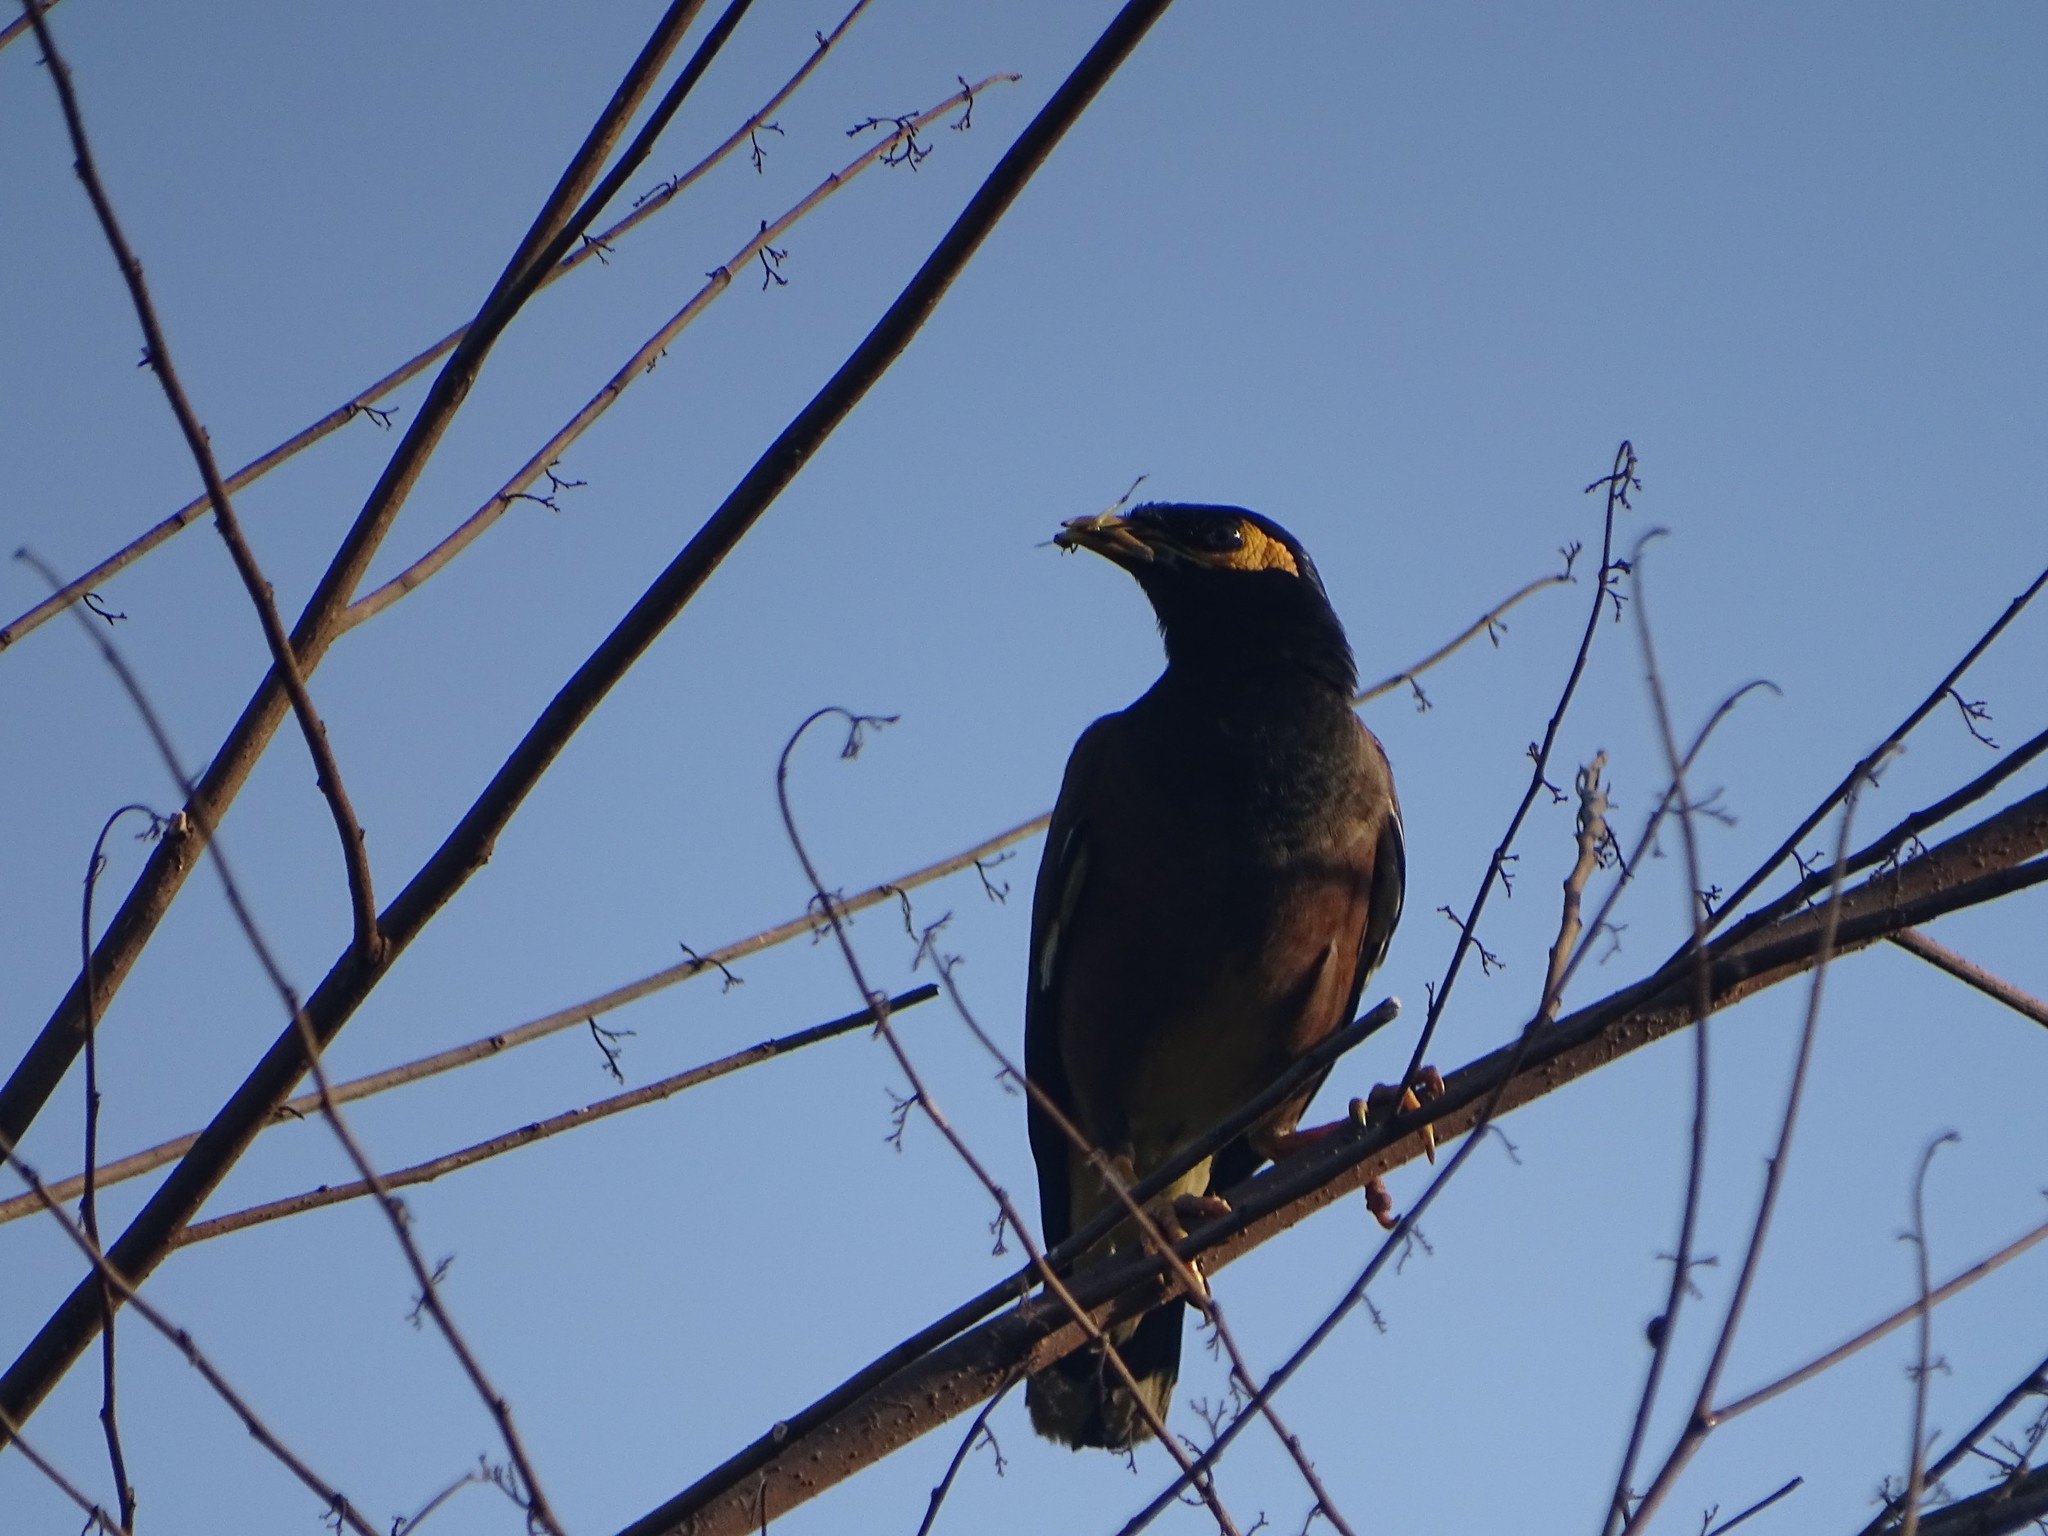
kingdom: Animalia
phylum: Chordata
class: Aves
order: Passeriformes
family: Sturnidae
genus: Acridotheres
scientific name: Acridotheres tristis
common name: Common myna
